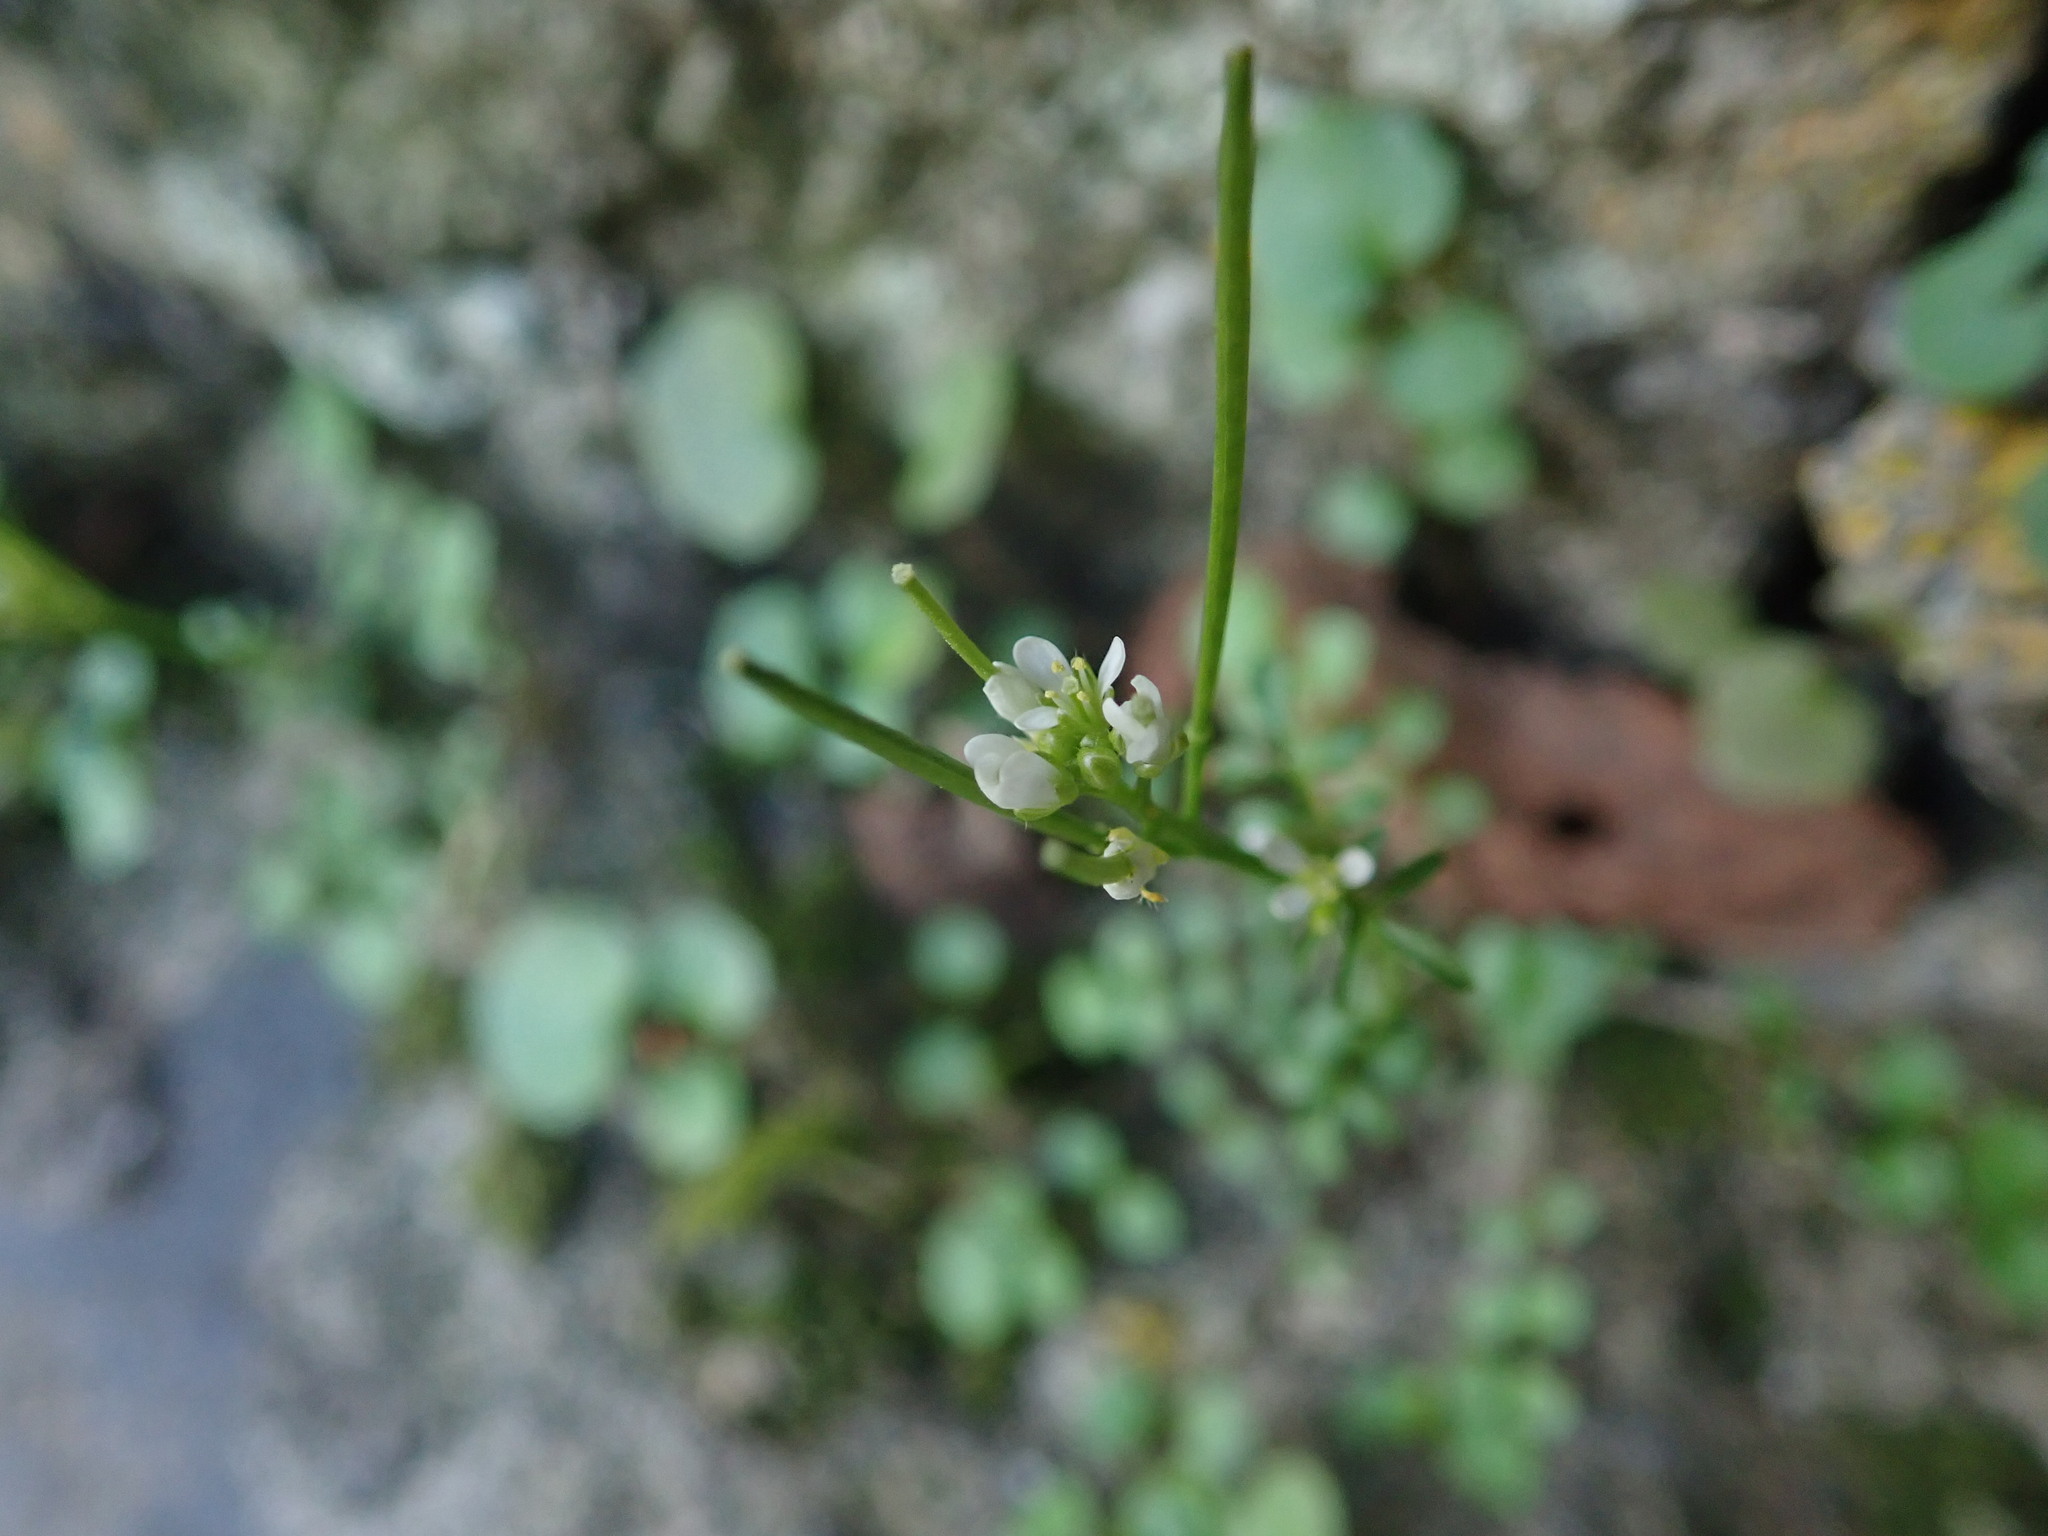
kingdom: Plantae
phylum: Tracheophyta
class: Magnoliopsida
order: Brassicales
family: Brassicaceae
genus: Cardamine
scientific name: Cardamine hirsuta
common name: Hairy bittercress
